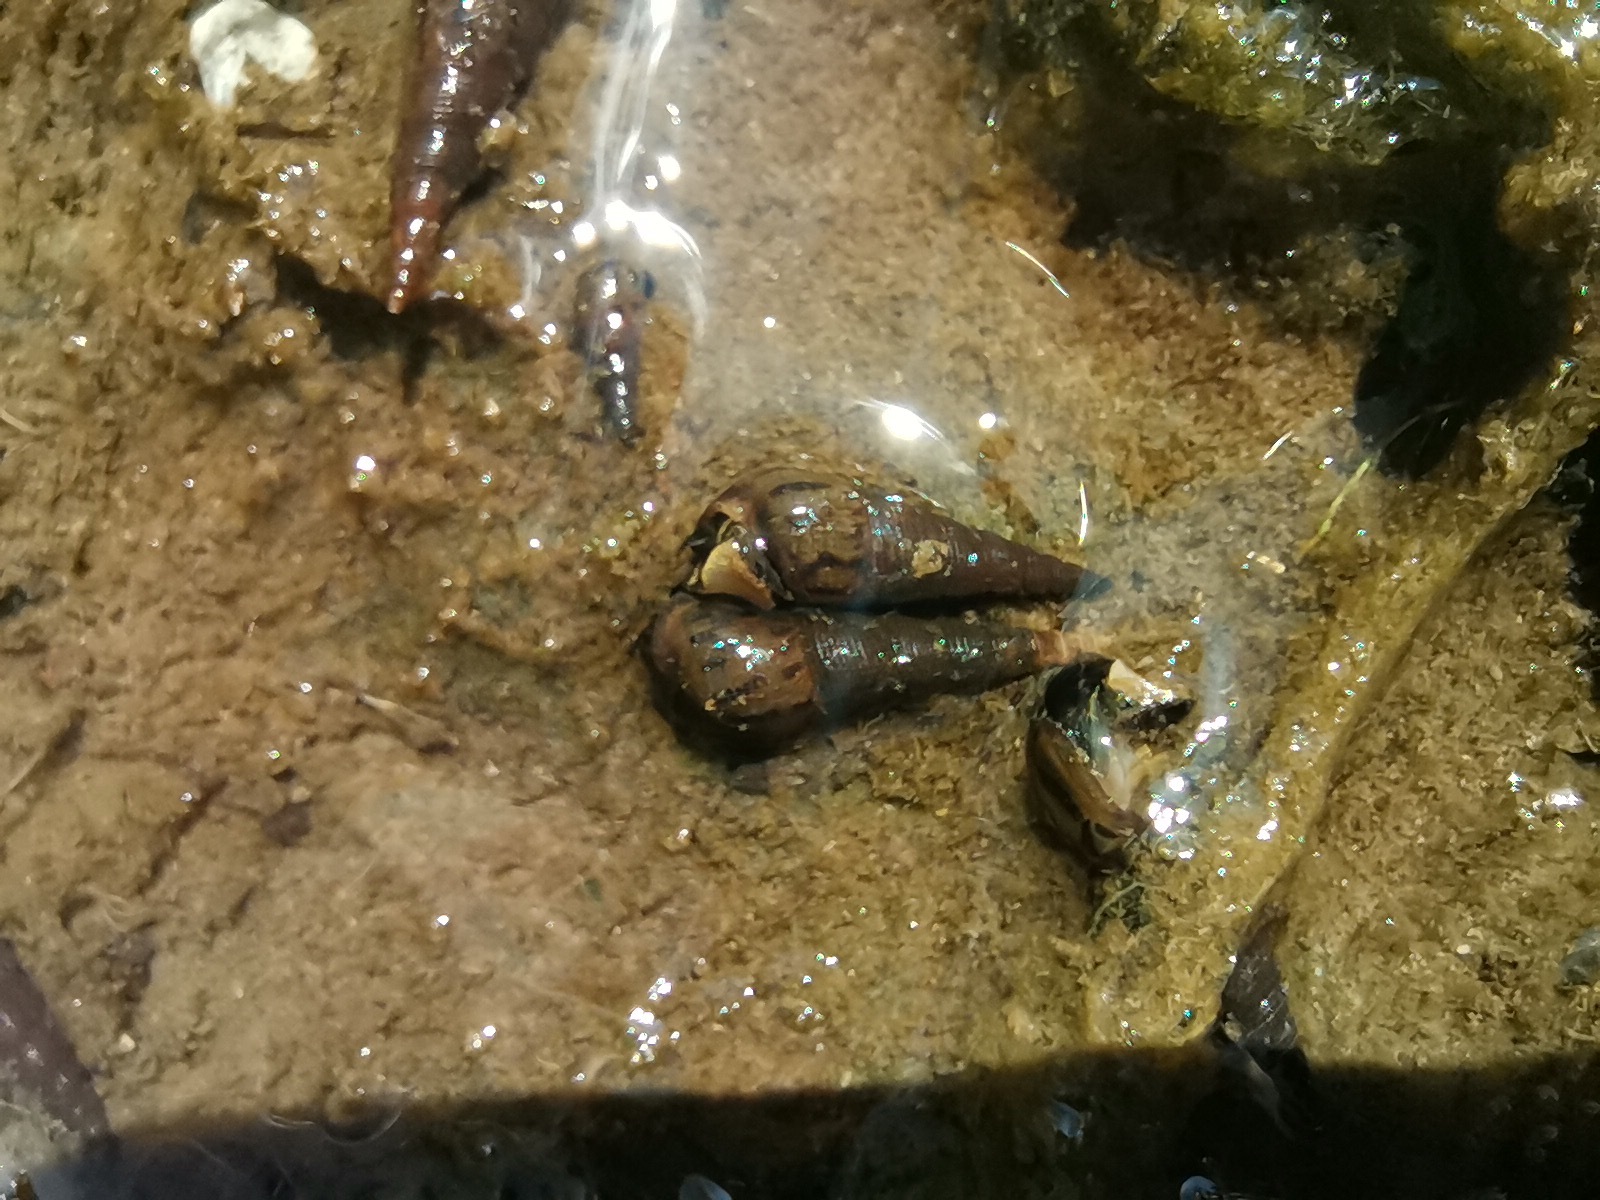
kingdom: Animalia
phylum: Mollusca
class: Gastropoda
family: Thiaridae
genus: Melanoides
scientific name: Melanoides tuberculata
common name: Red-rim melania
